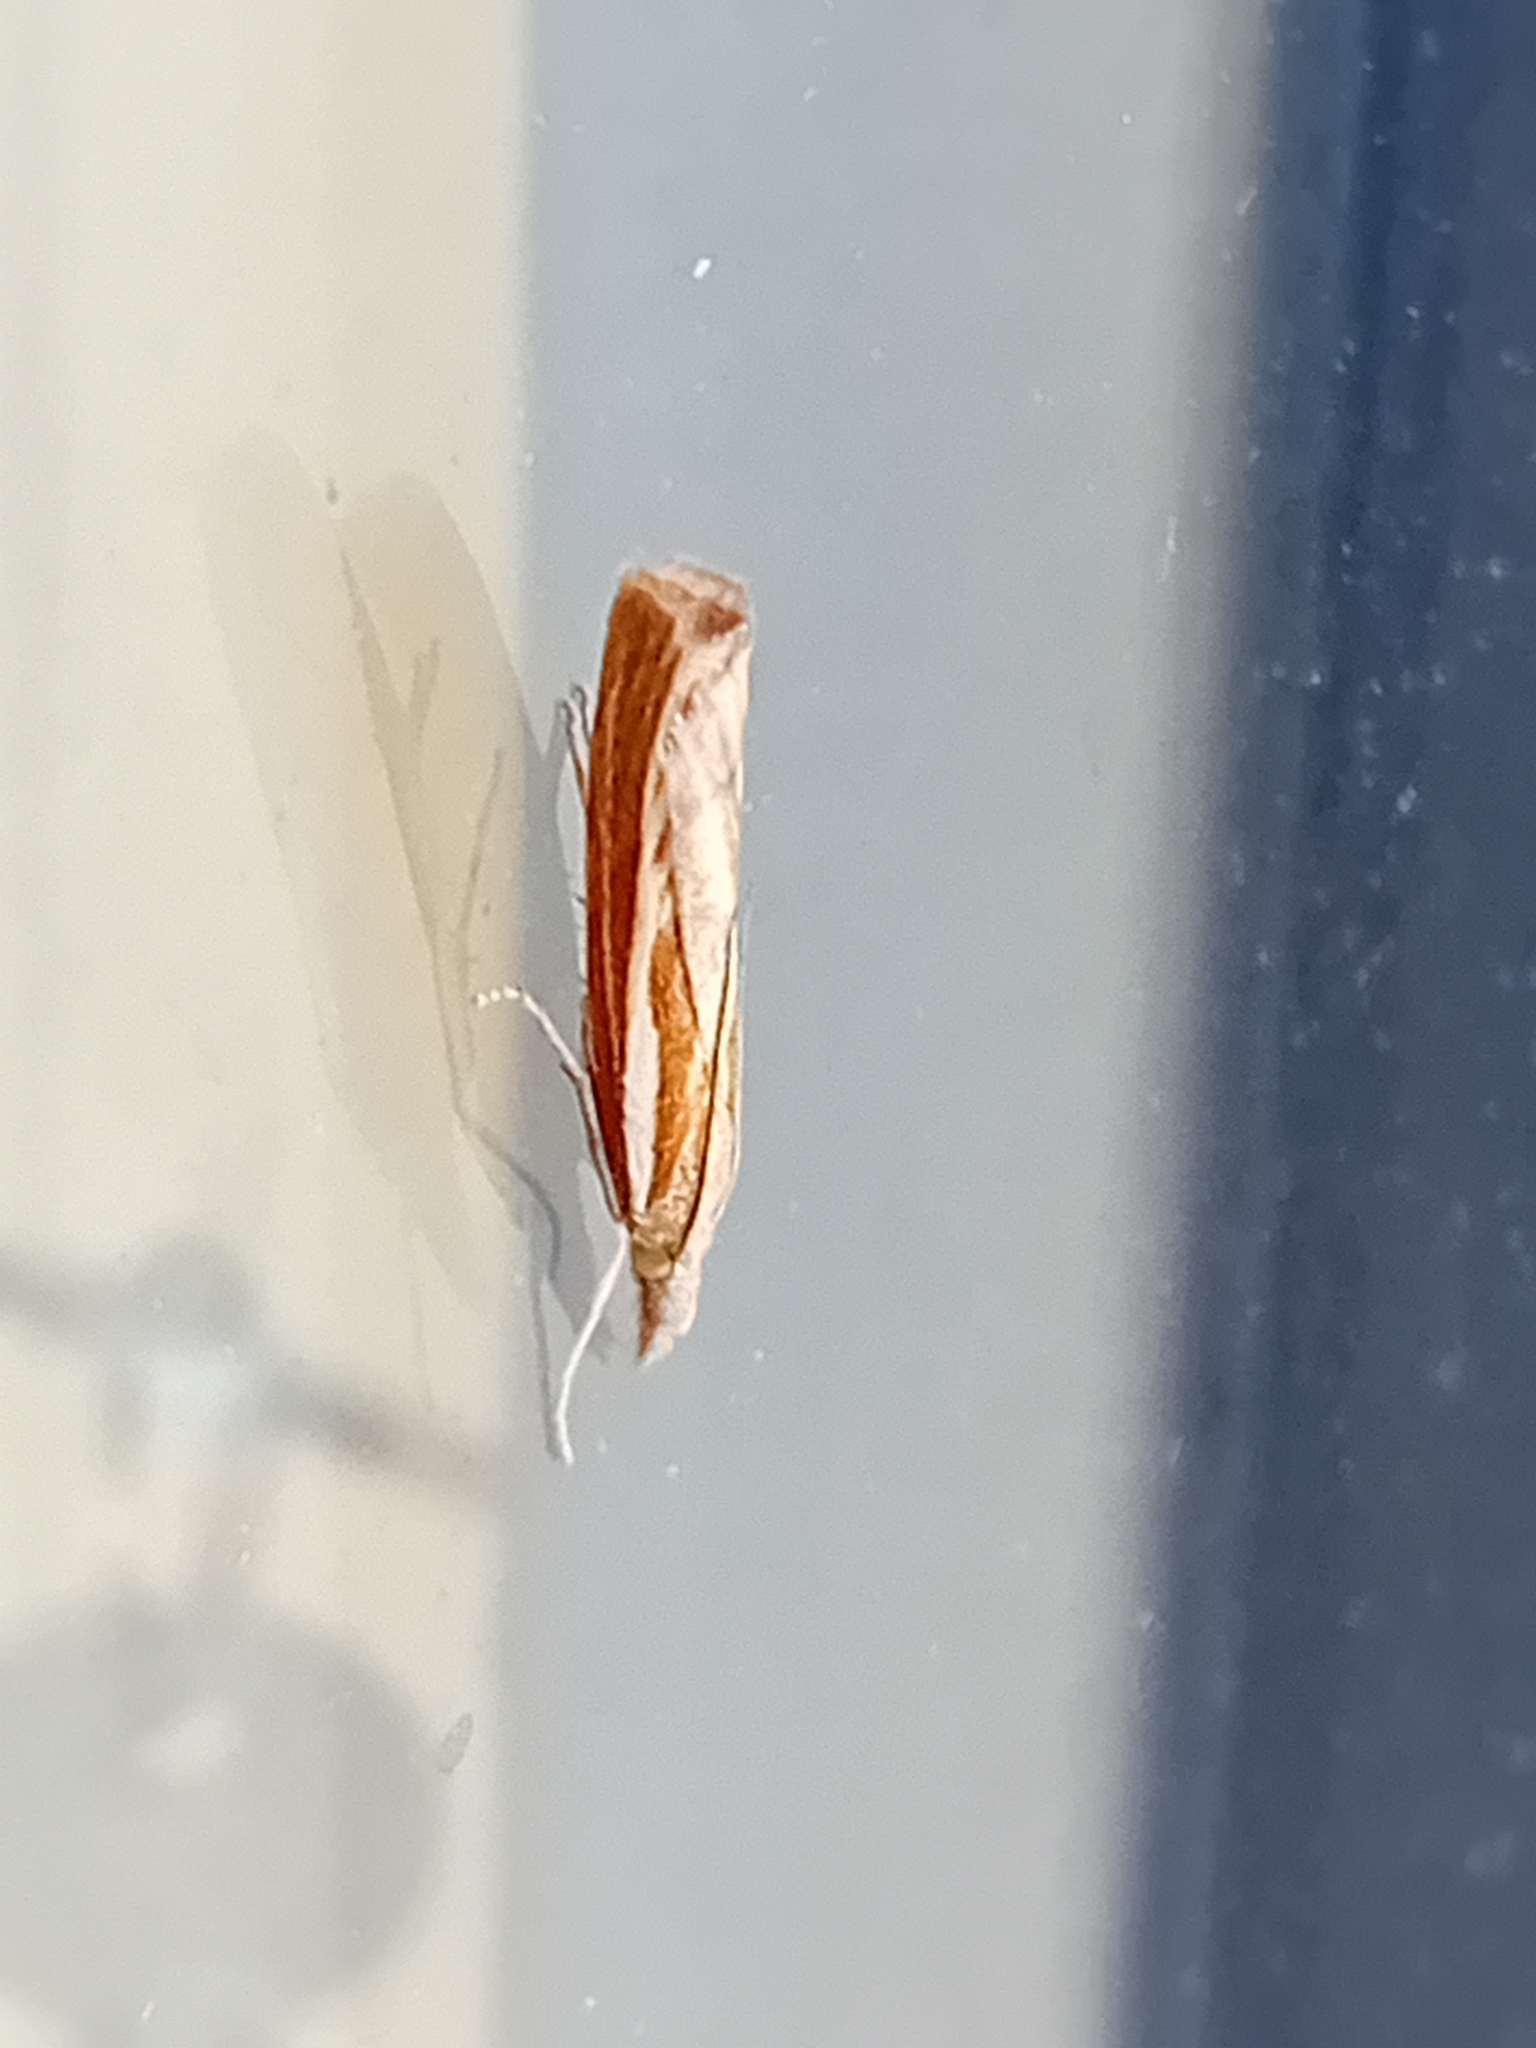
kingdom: Animalia
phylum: Arthropoda
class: Insecta
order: Lepidoptera
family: Crambidae
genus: Agriphila
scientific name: Agriphila tristellus
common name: Common grass-veneer
